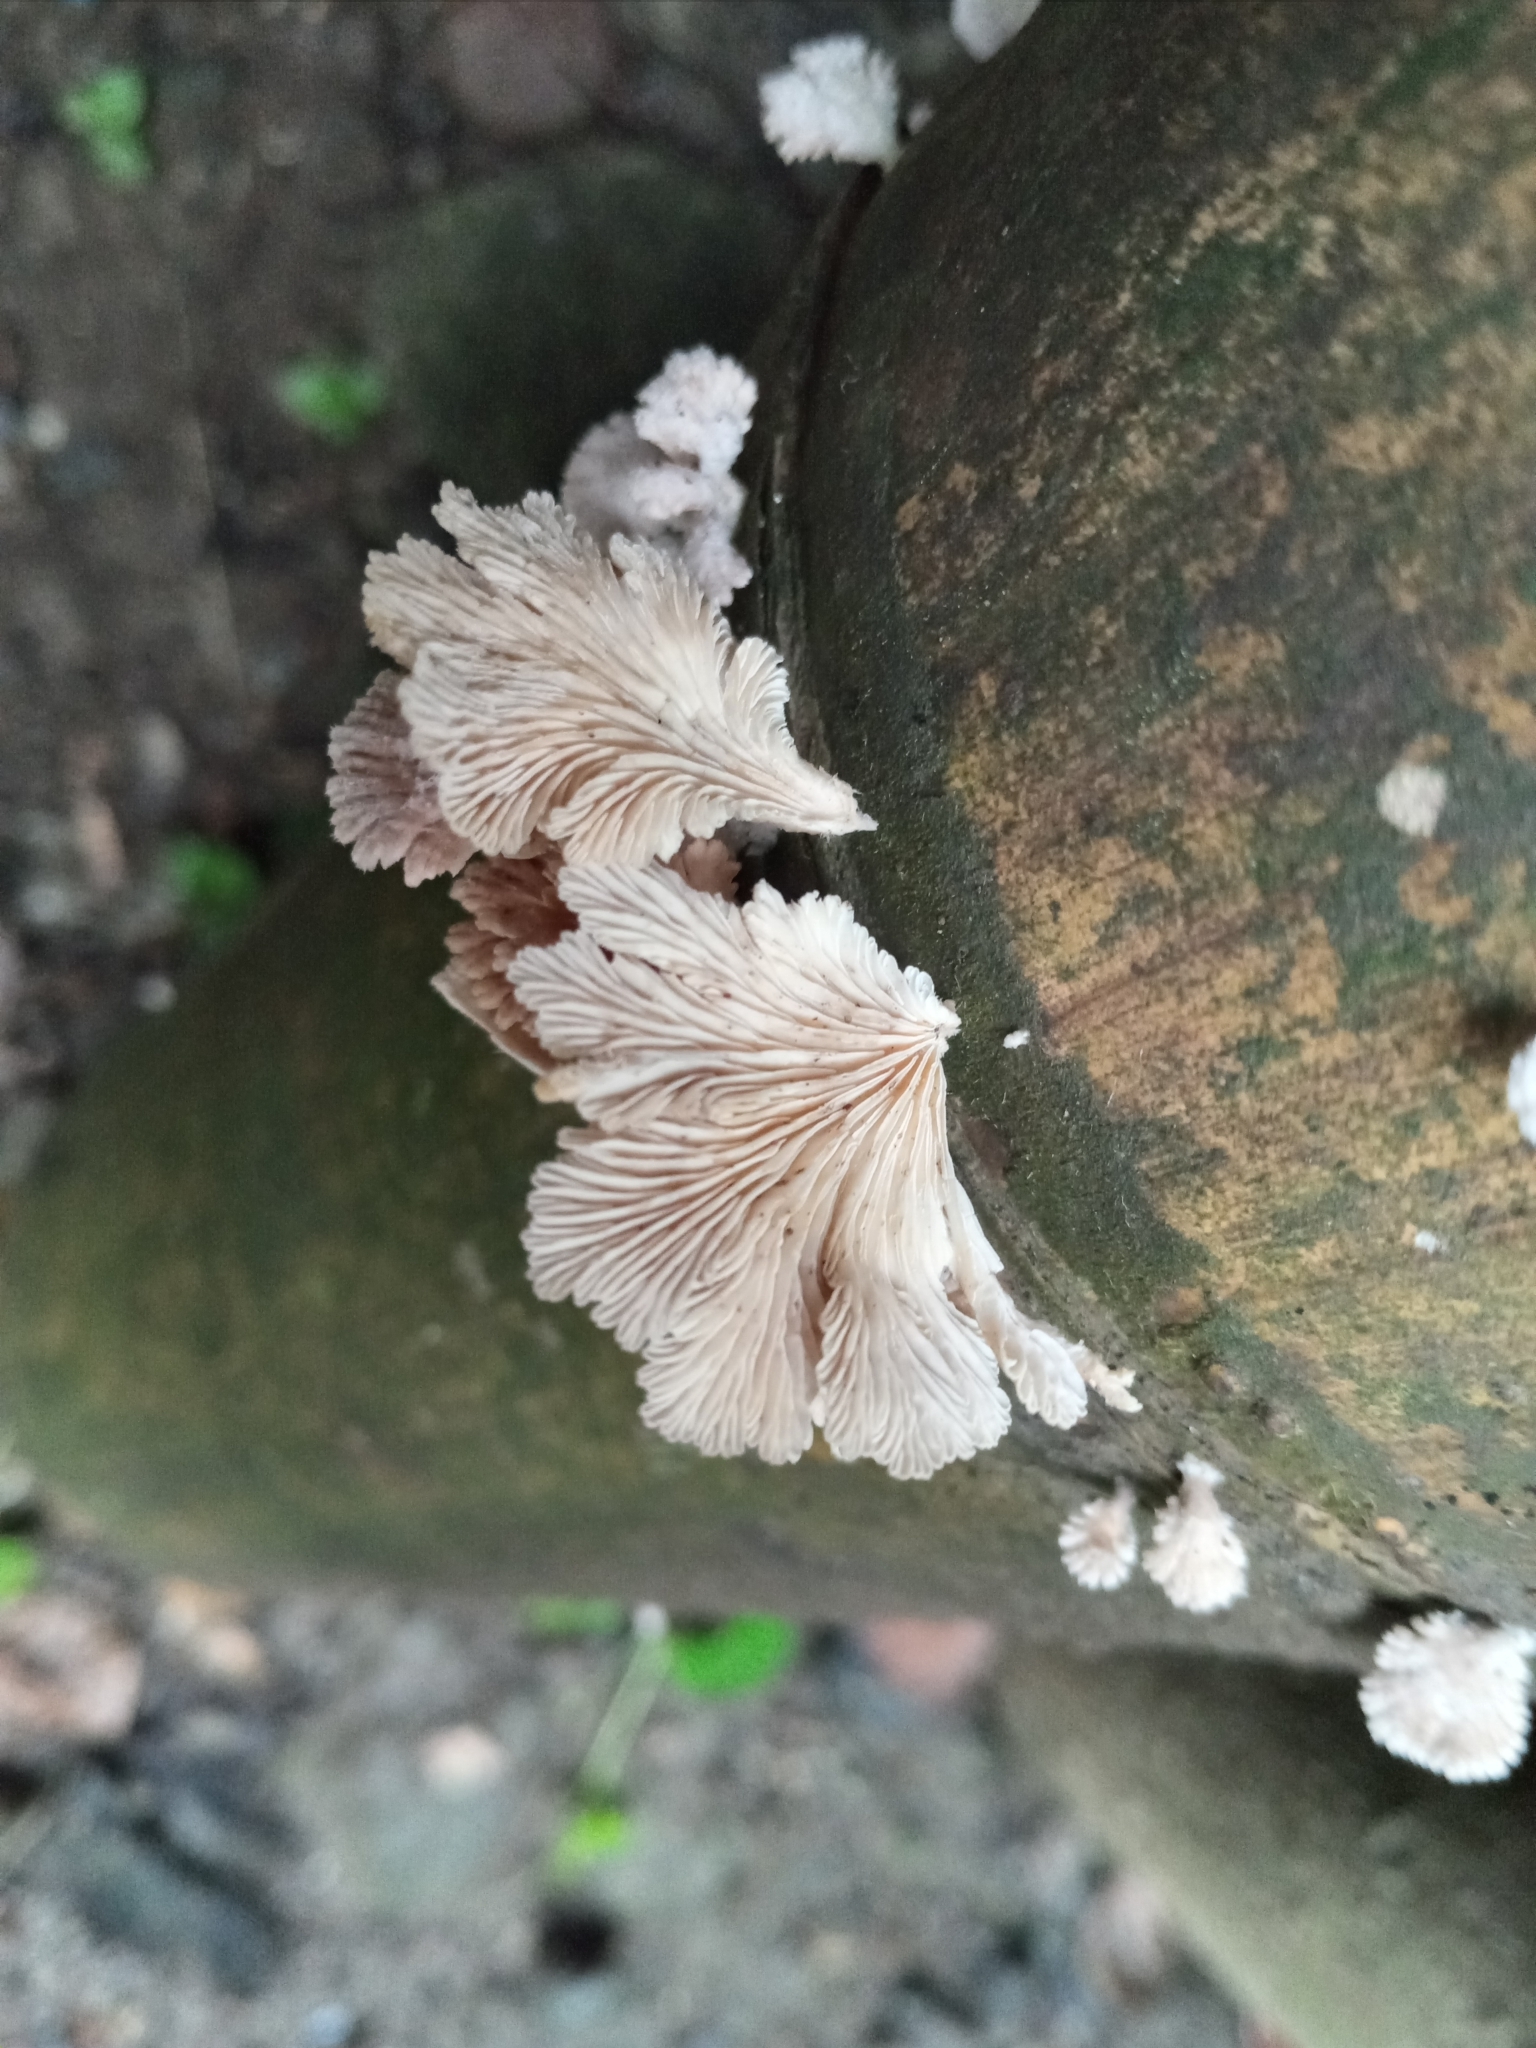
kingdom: Fungi
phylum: Basidiomycota
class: Agaricomycetes
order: Agaricales
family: Schizophyllaceae
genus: Schizophyllum
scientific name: Schizophyllum commune
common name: Common porecrust
